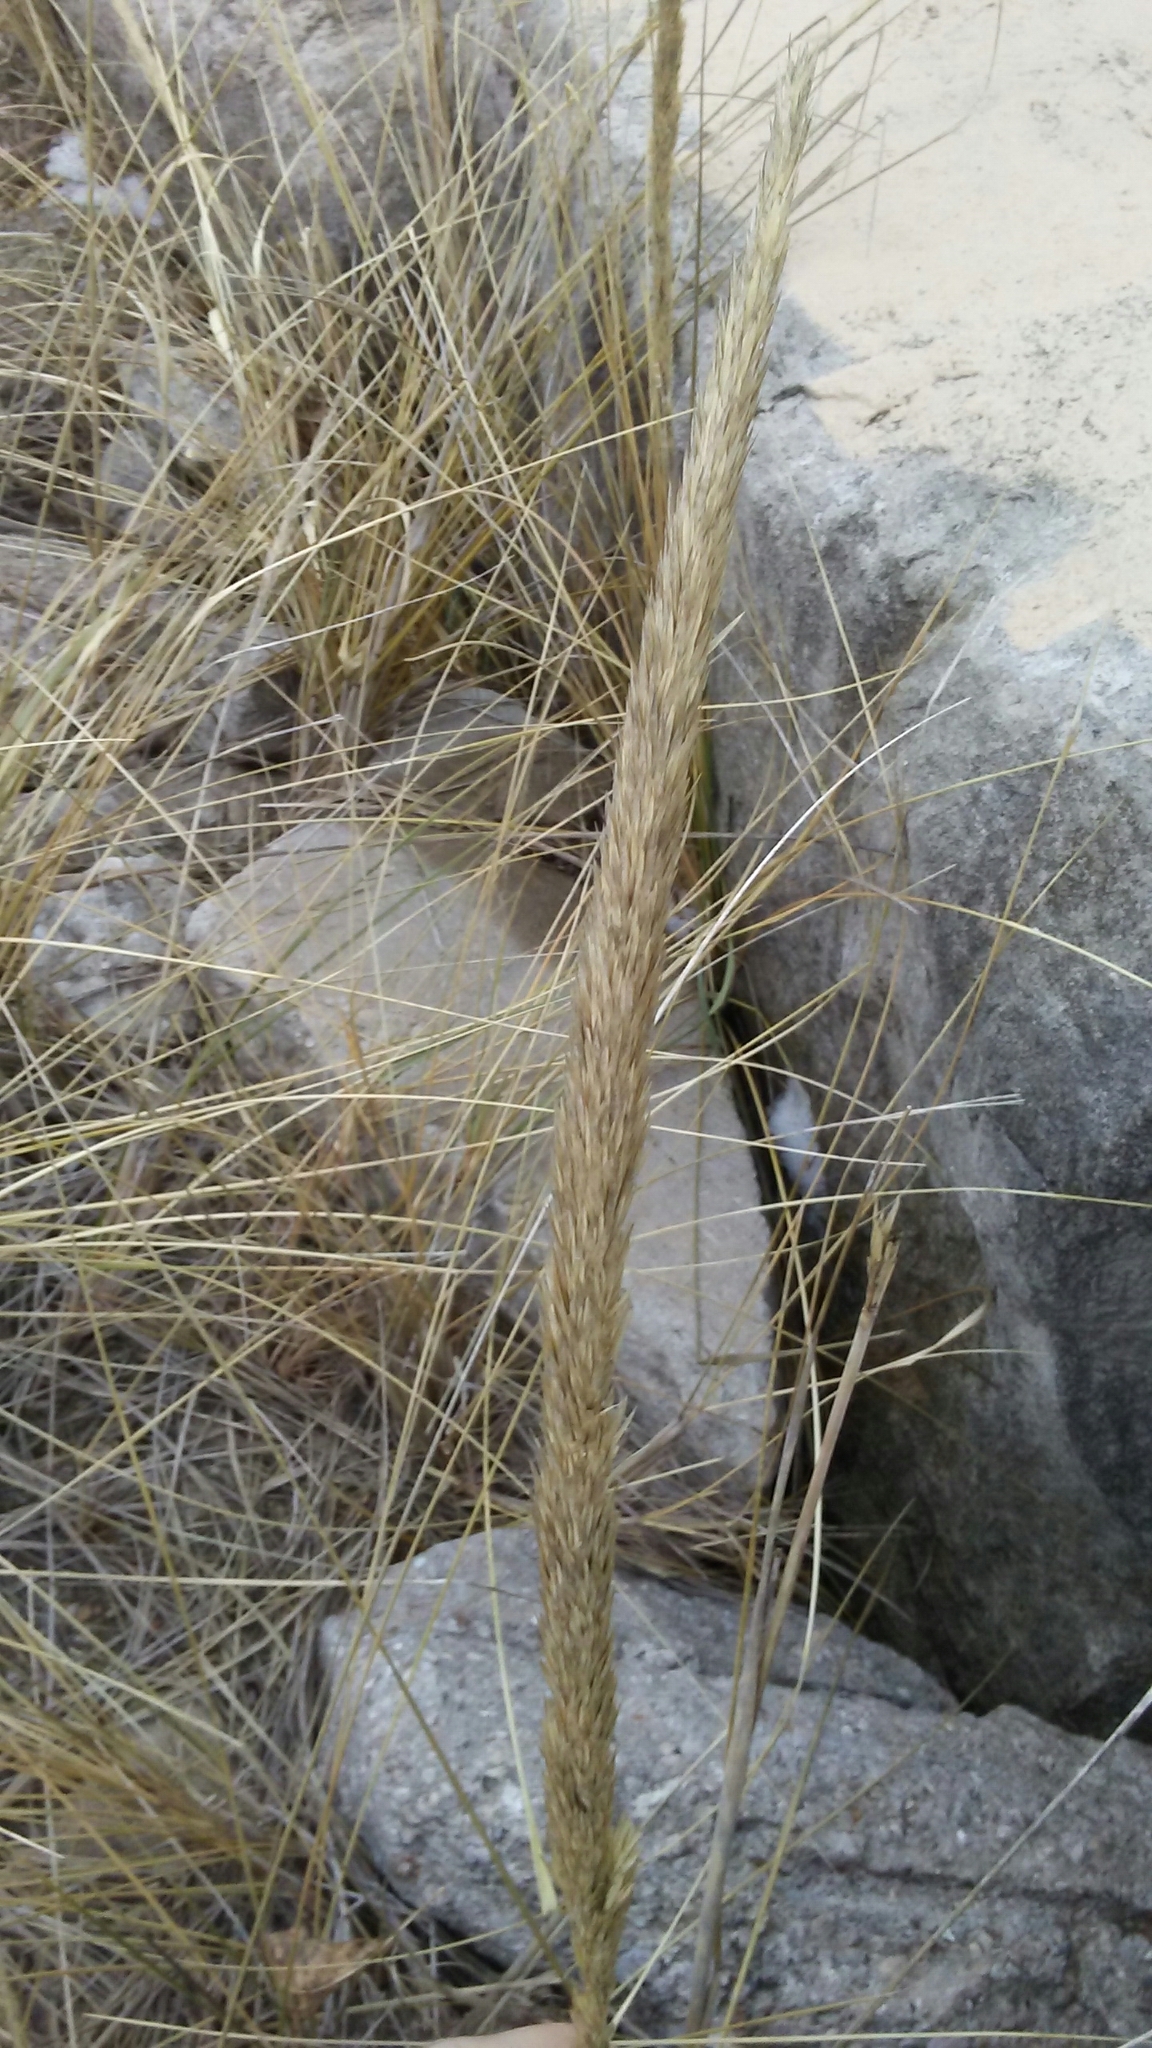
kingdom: Plantae
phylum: Tracheophyta
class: Liliopsida
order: Poales
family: Poaceae
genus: Calamagrostis
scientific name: Calamagrostis breviligulata
